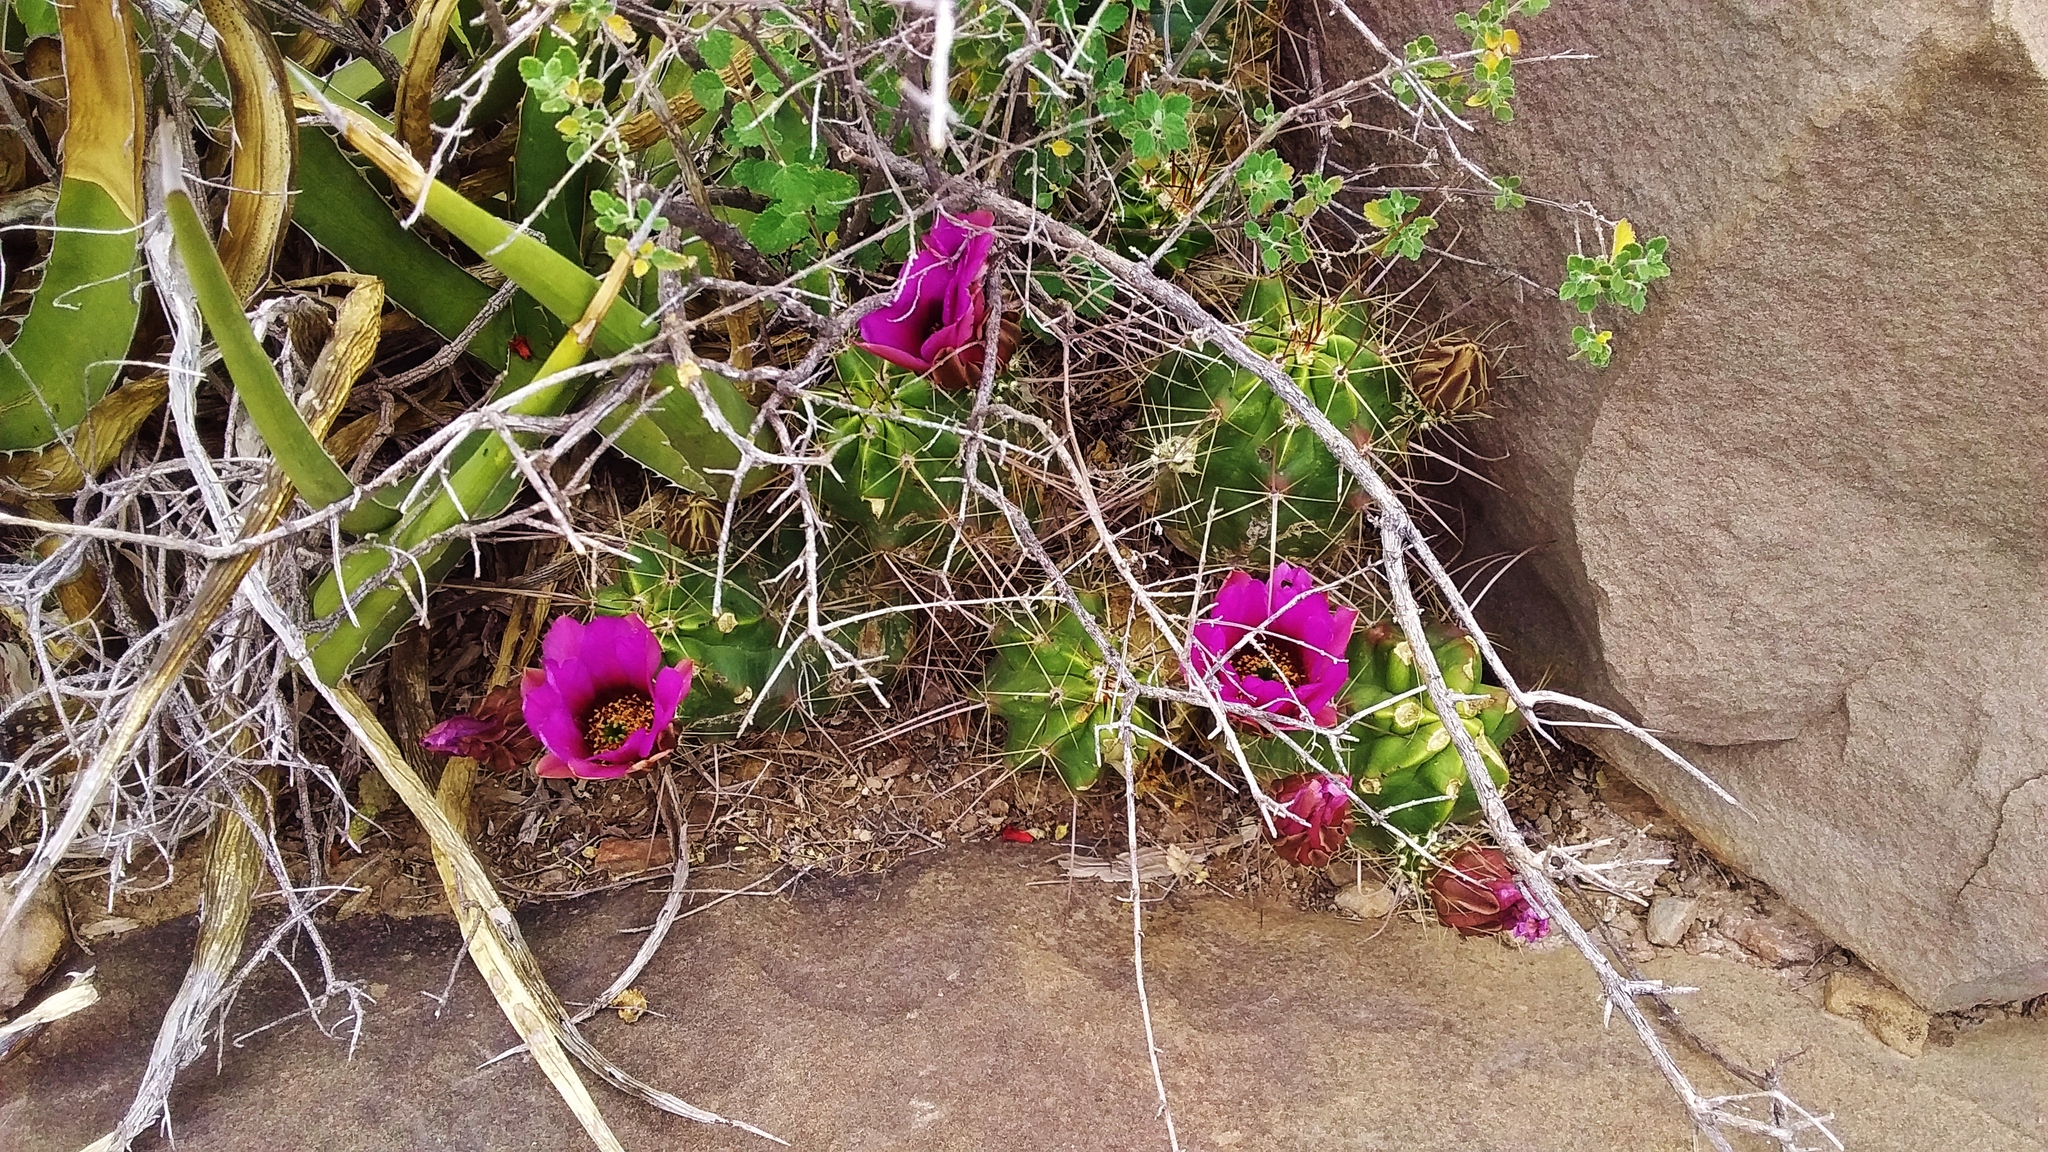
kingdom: Plantae
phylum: Tracheophyta
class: Magnoliopsida
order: Caryophyllales
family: Cactaceae
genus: Echinocereus
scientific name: Echinocereus enneacanthus
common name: Pitaya
